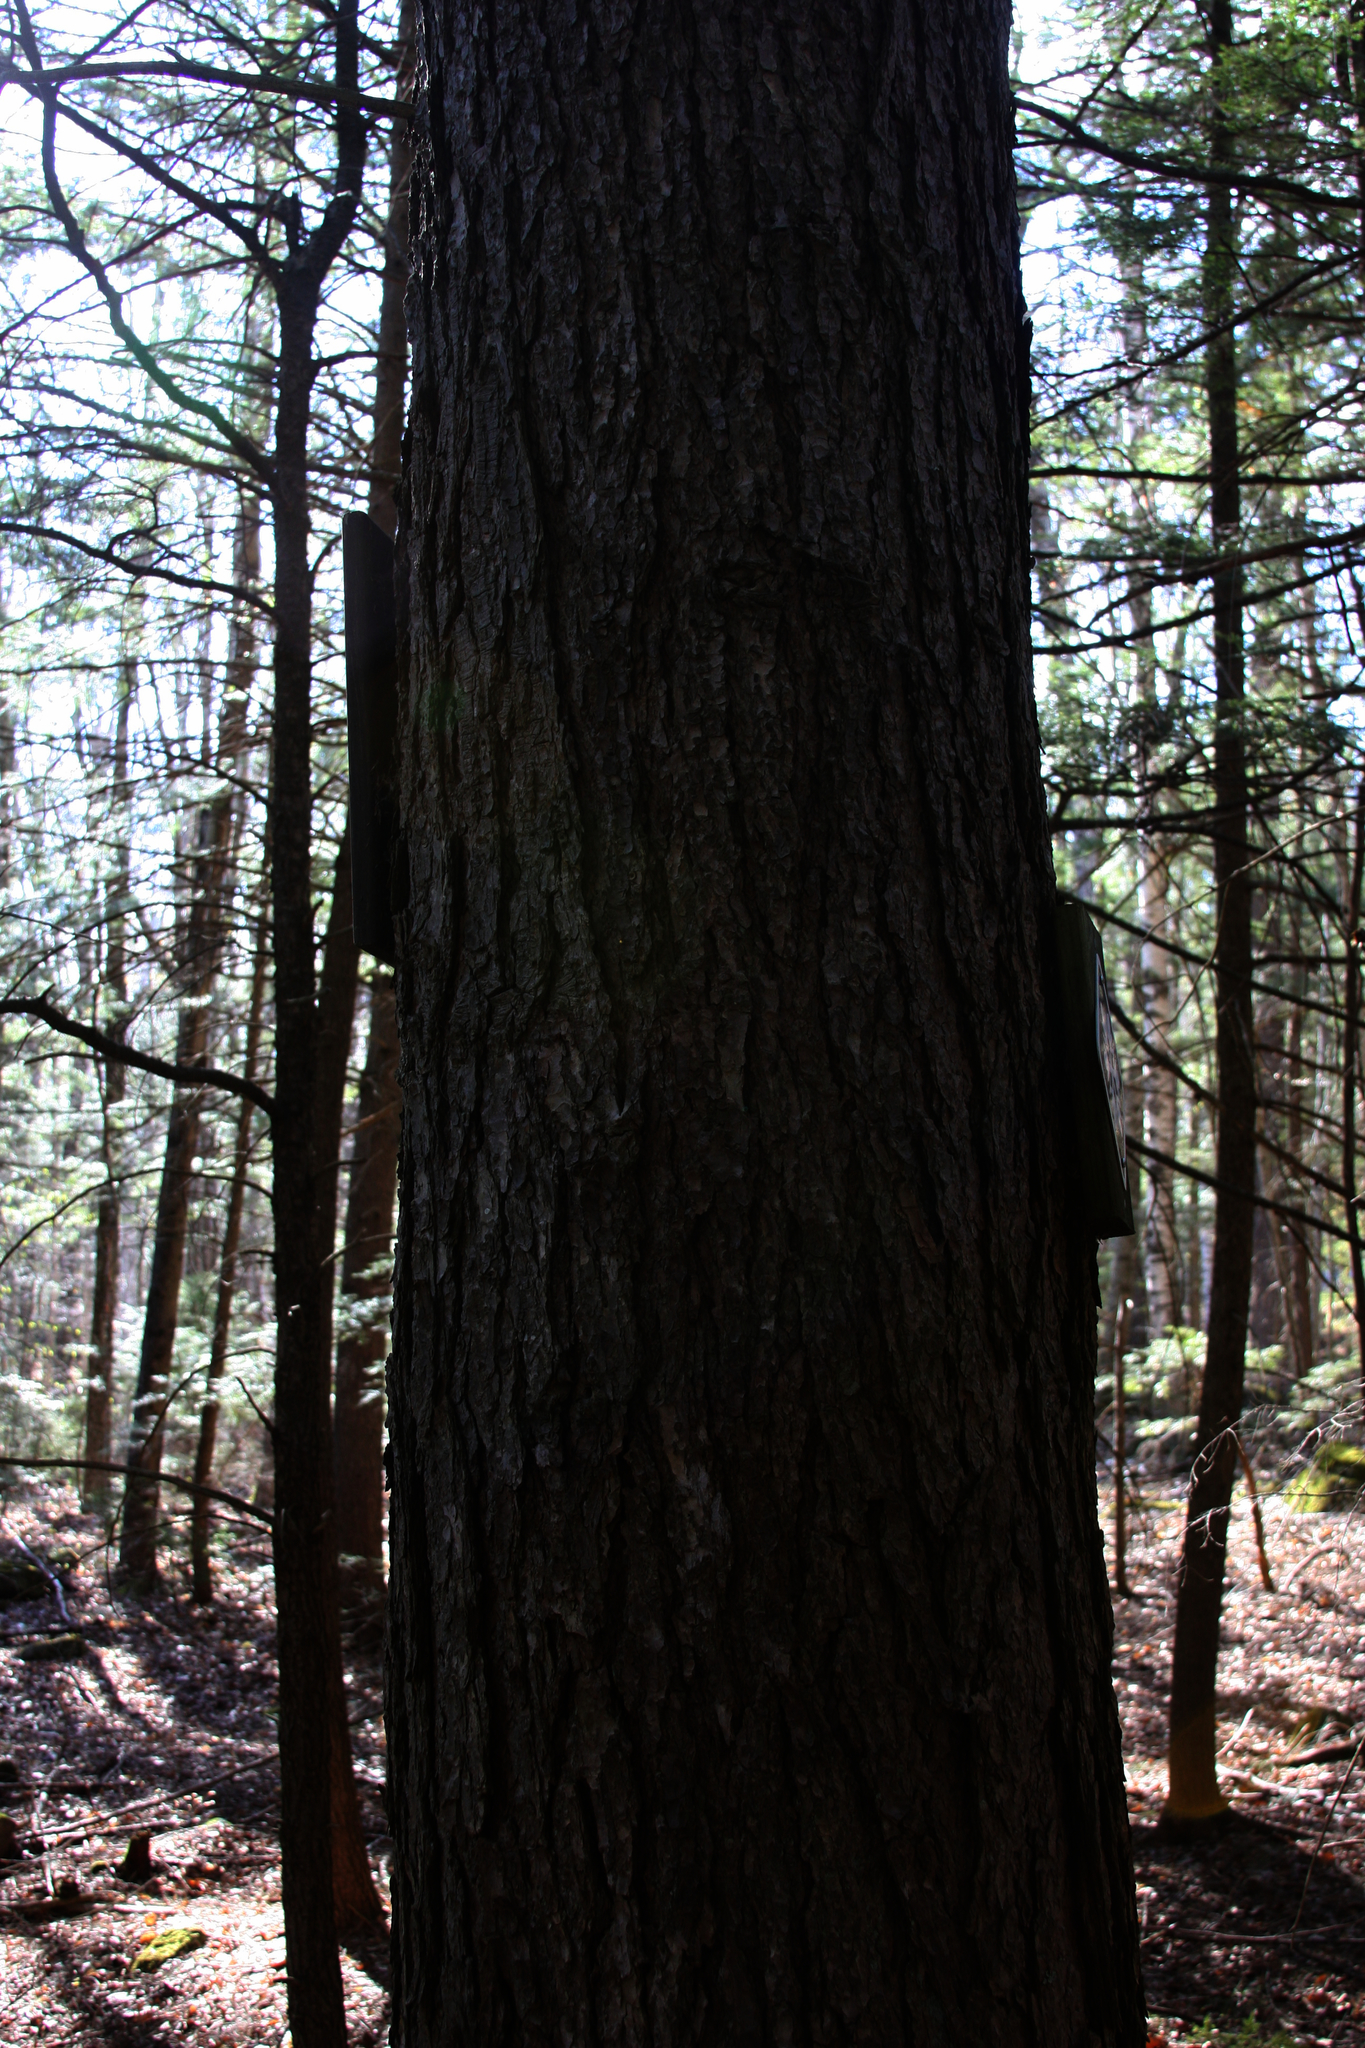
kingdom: Plantae
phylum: Tracheophyta
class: Pinopsida
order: Pinales
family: Pinaceae
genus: Tsuga
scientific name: Tsuga canadensis
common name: Eastern hemlock
